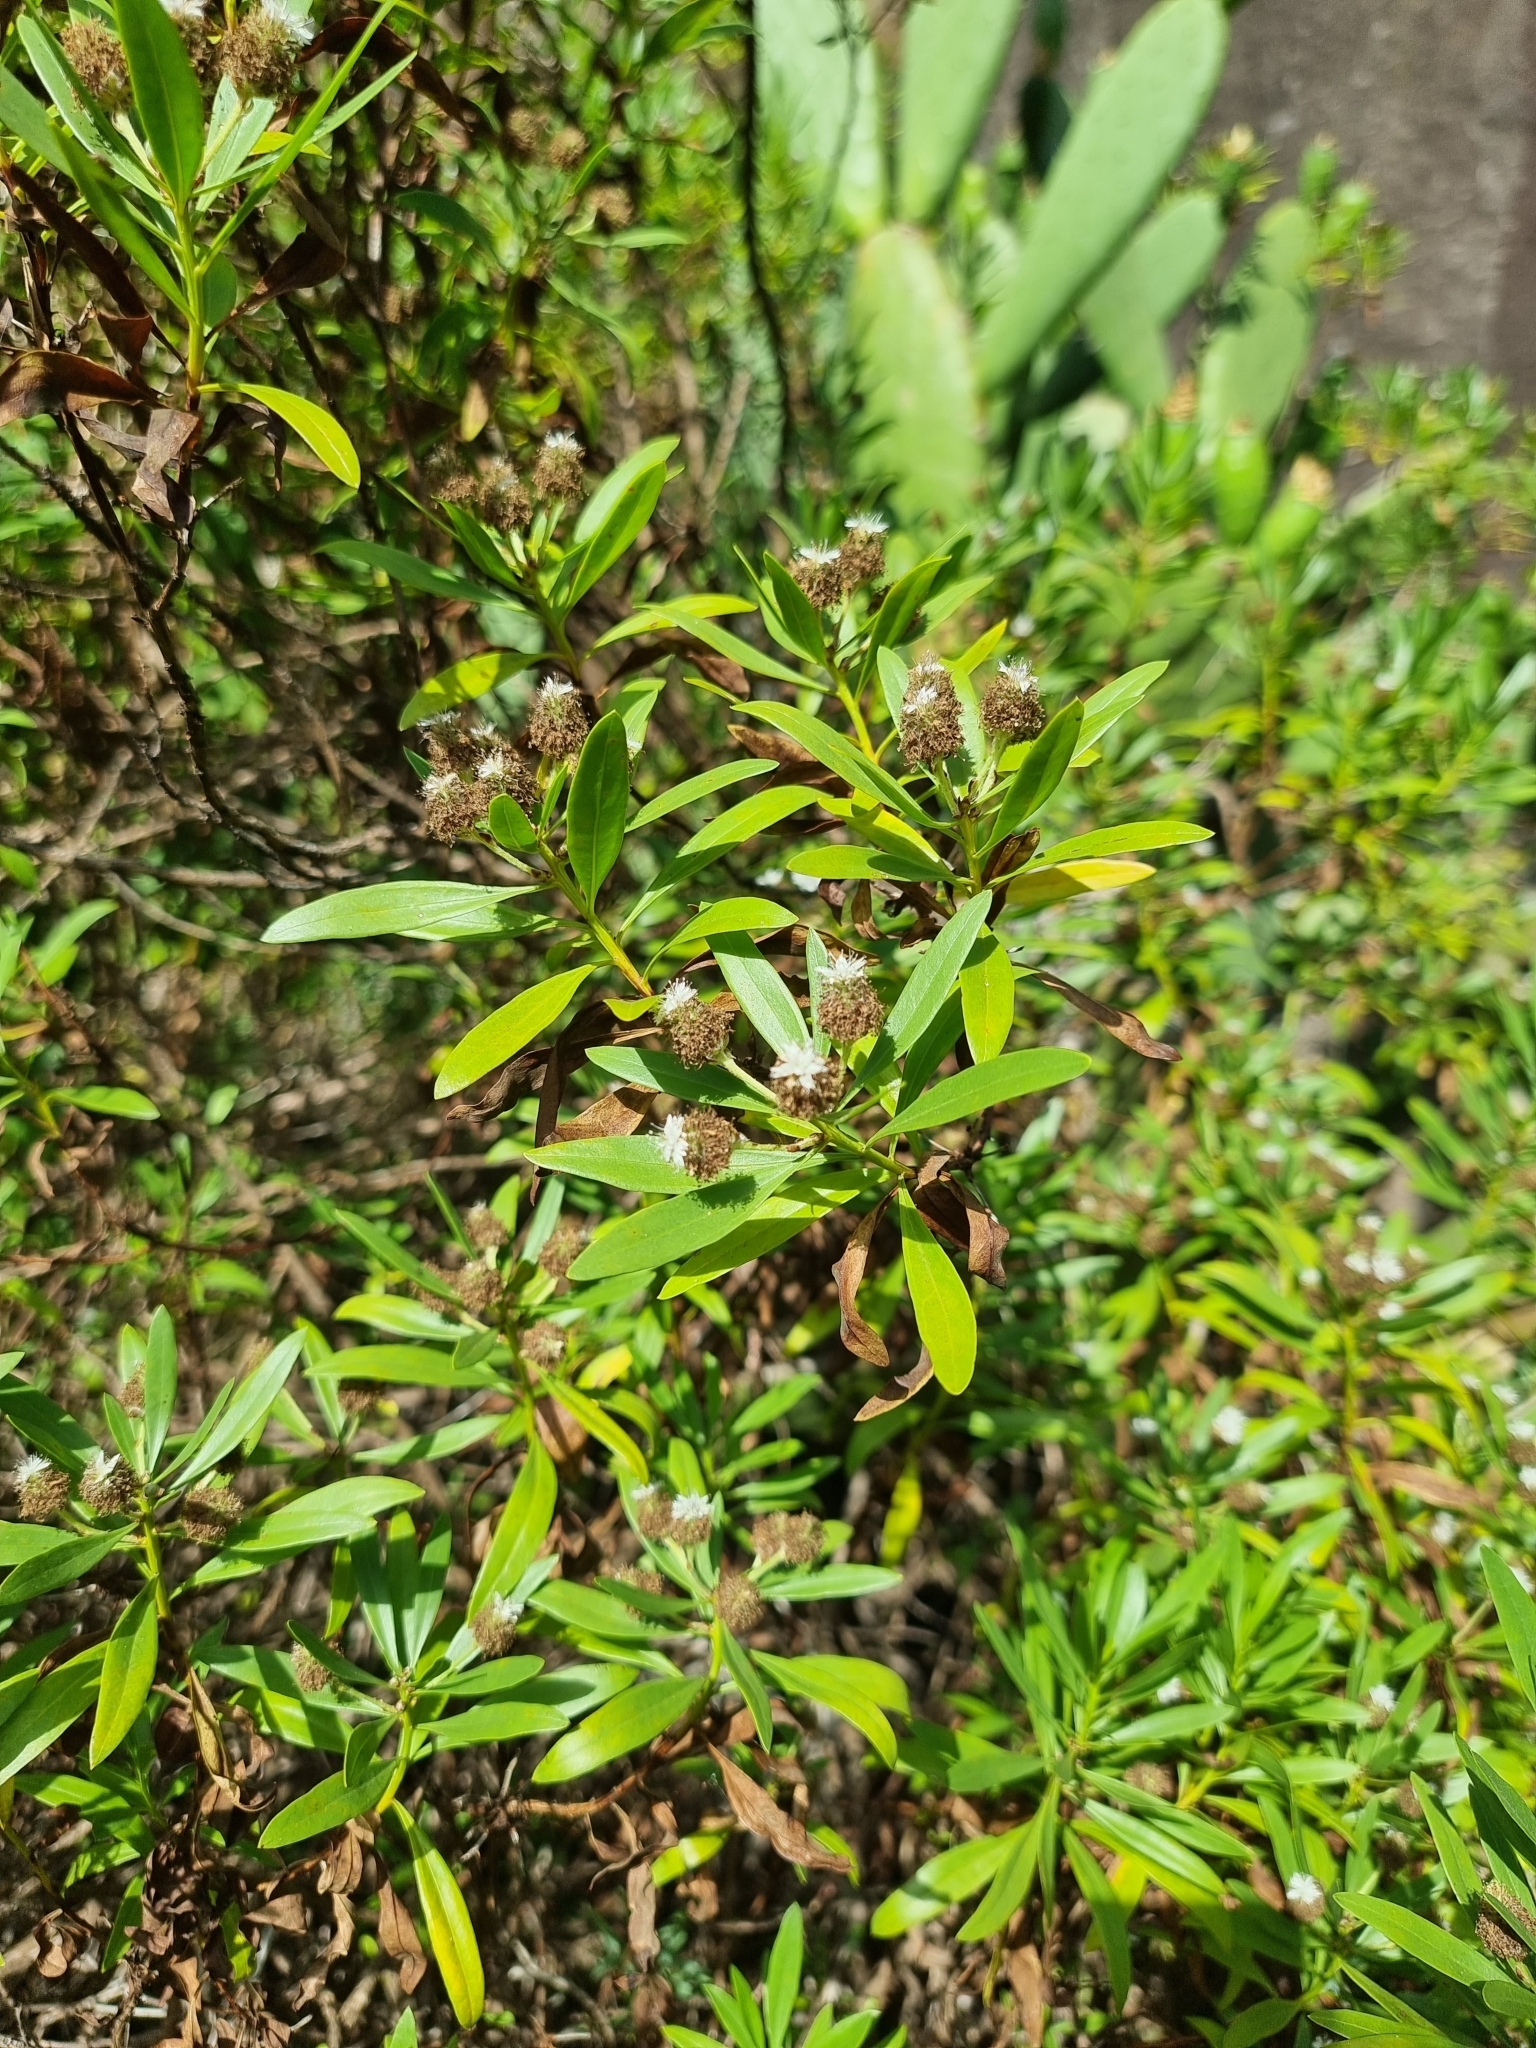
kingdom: Plantae
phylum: Tracheophyta
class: Magnoliopsida
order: Lamiales
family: Plantaginaceae
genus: Globularia
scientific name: Globularia salicina
